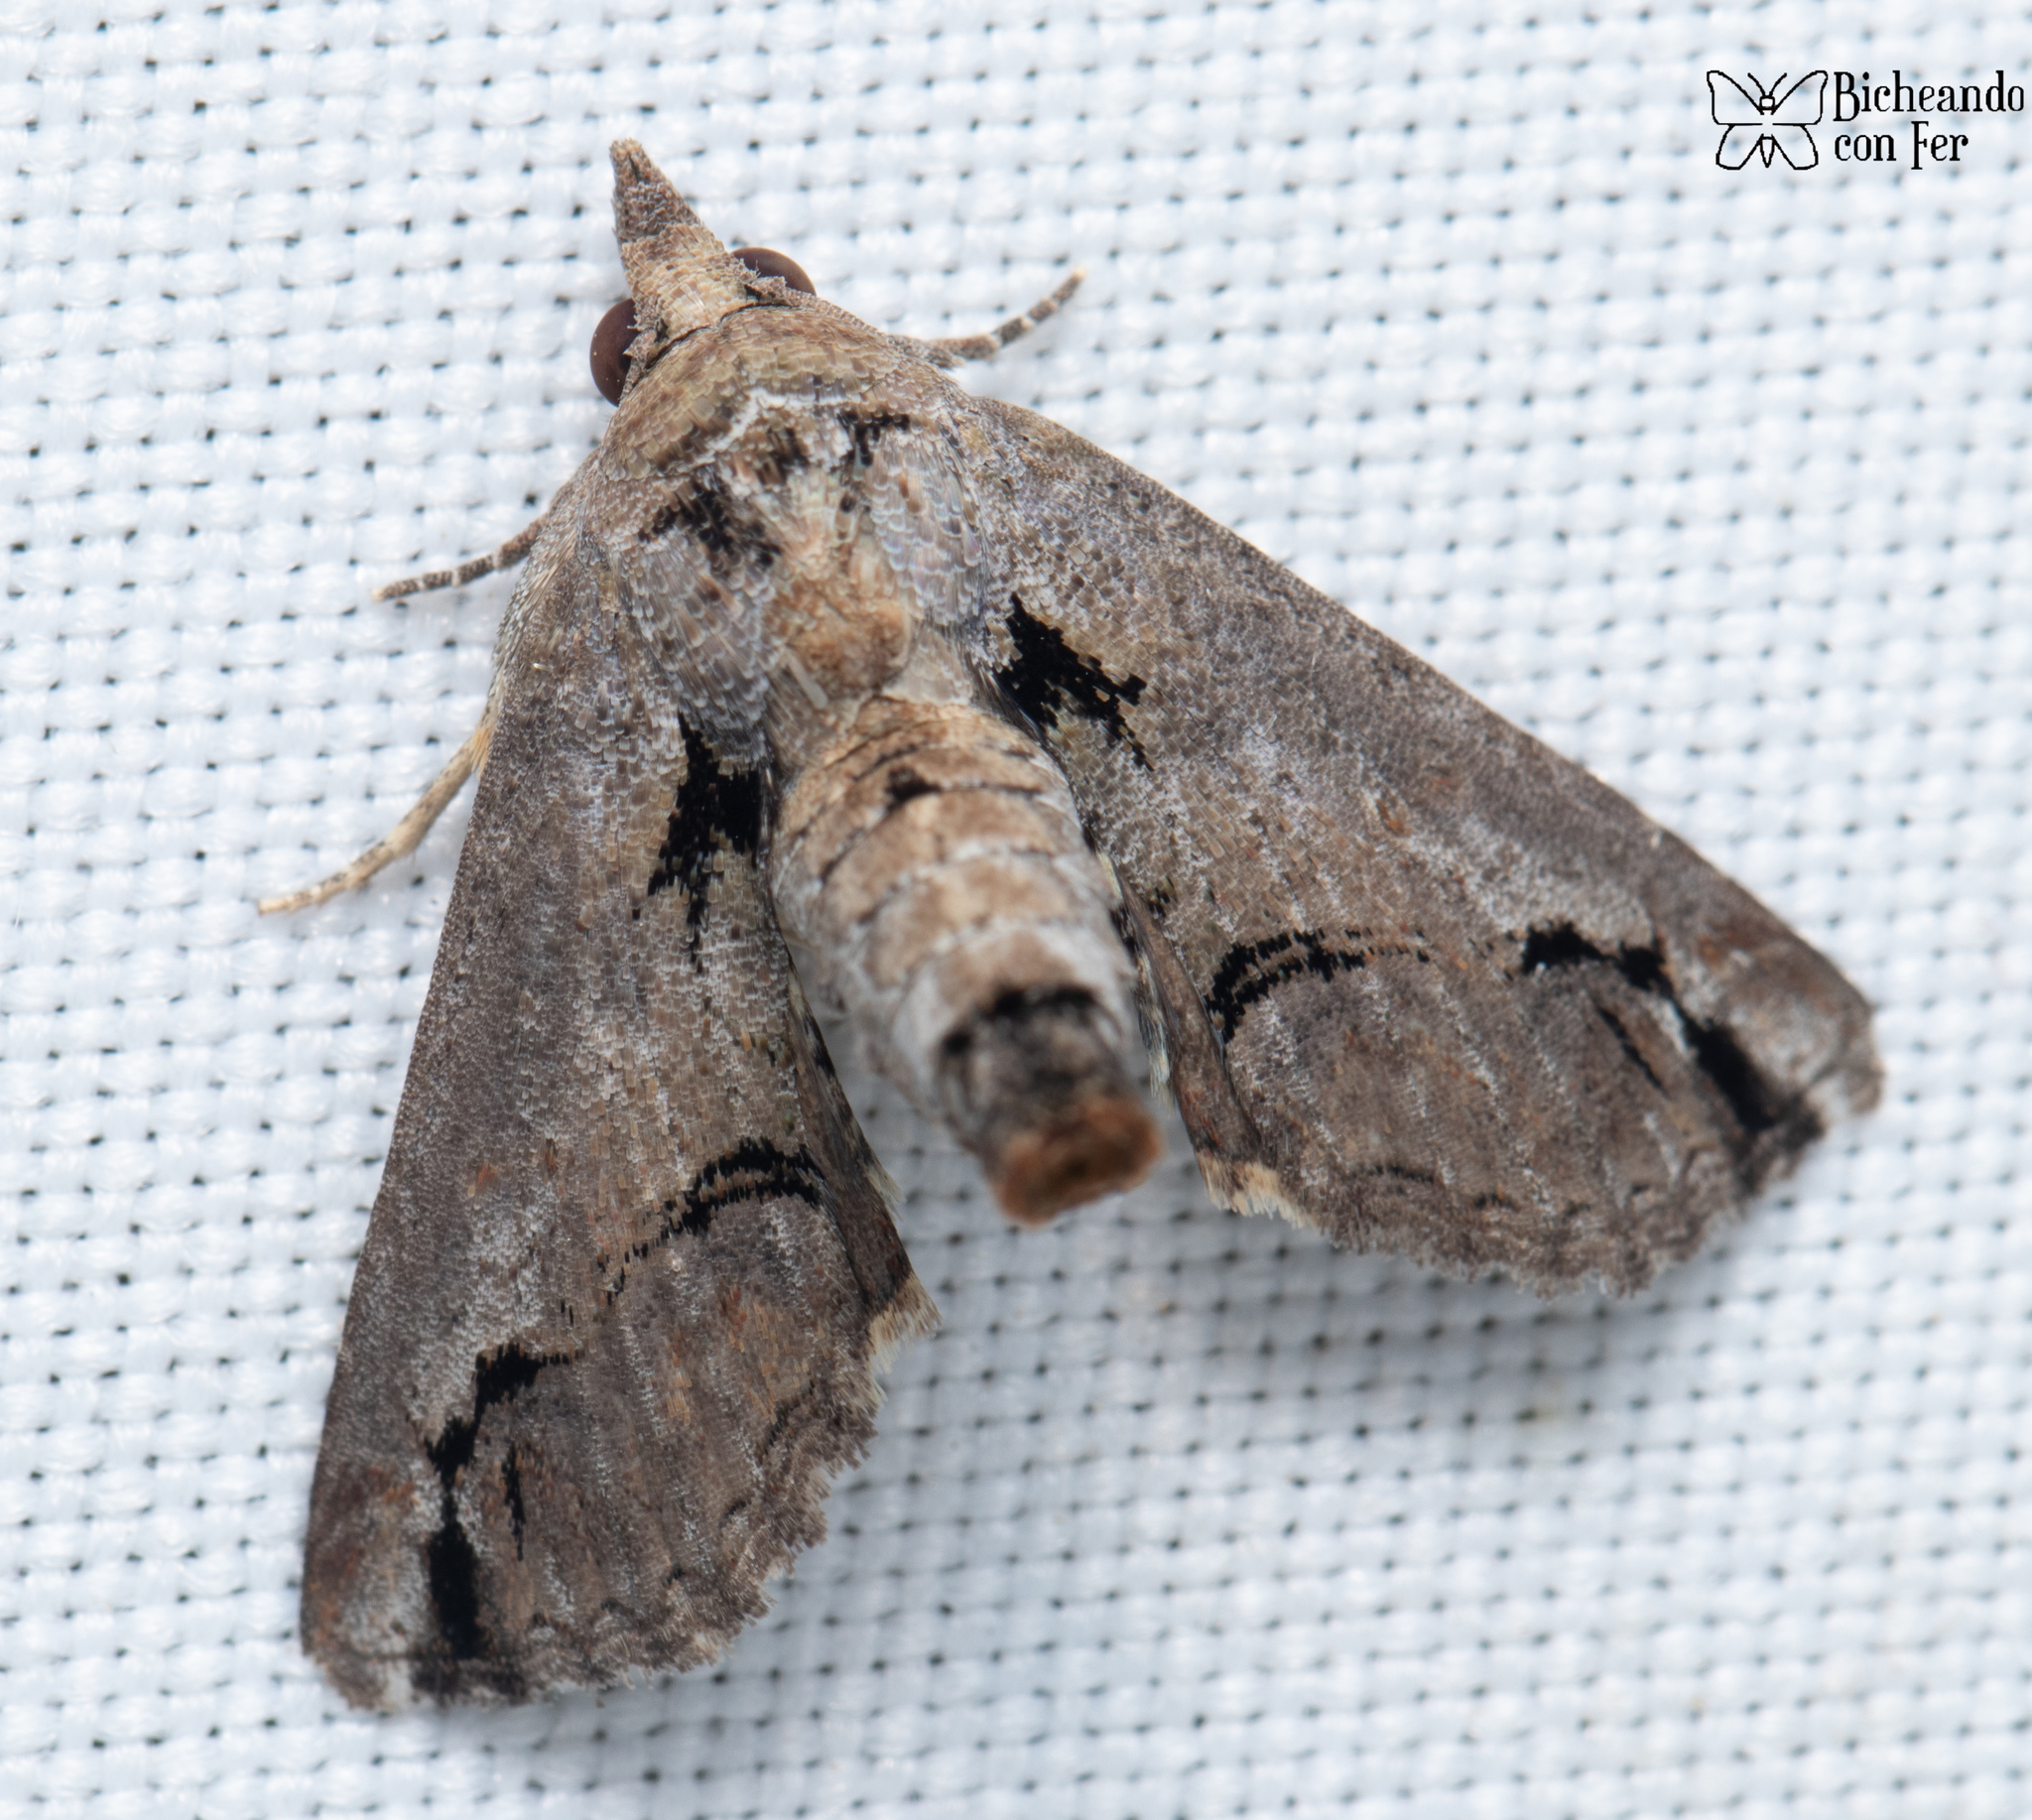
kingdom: Animalia
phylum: Arthropoda
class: Insecta
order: Lepidoptera
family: Euteliidae
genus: Paectes
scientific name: Paectes arcigera
